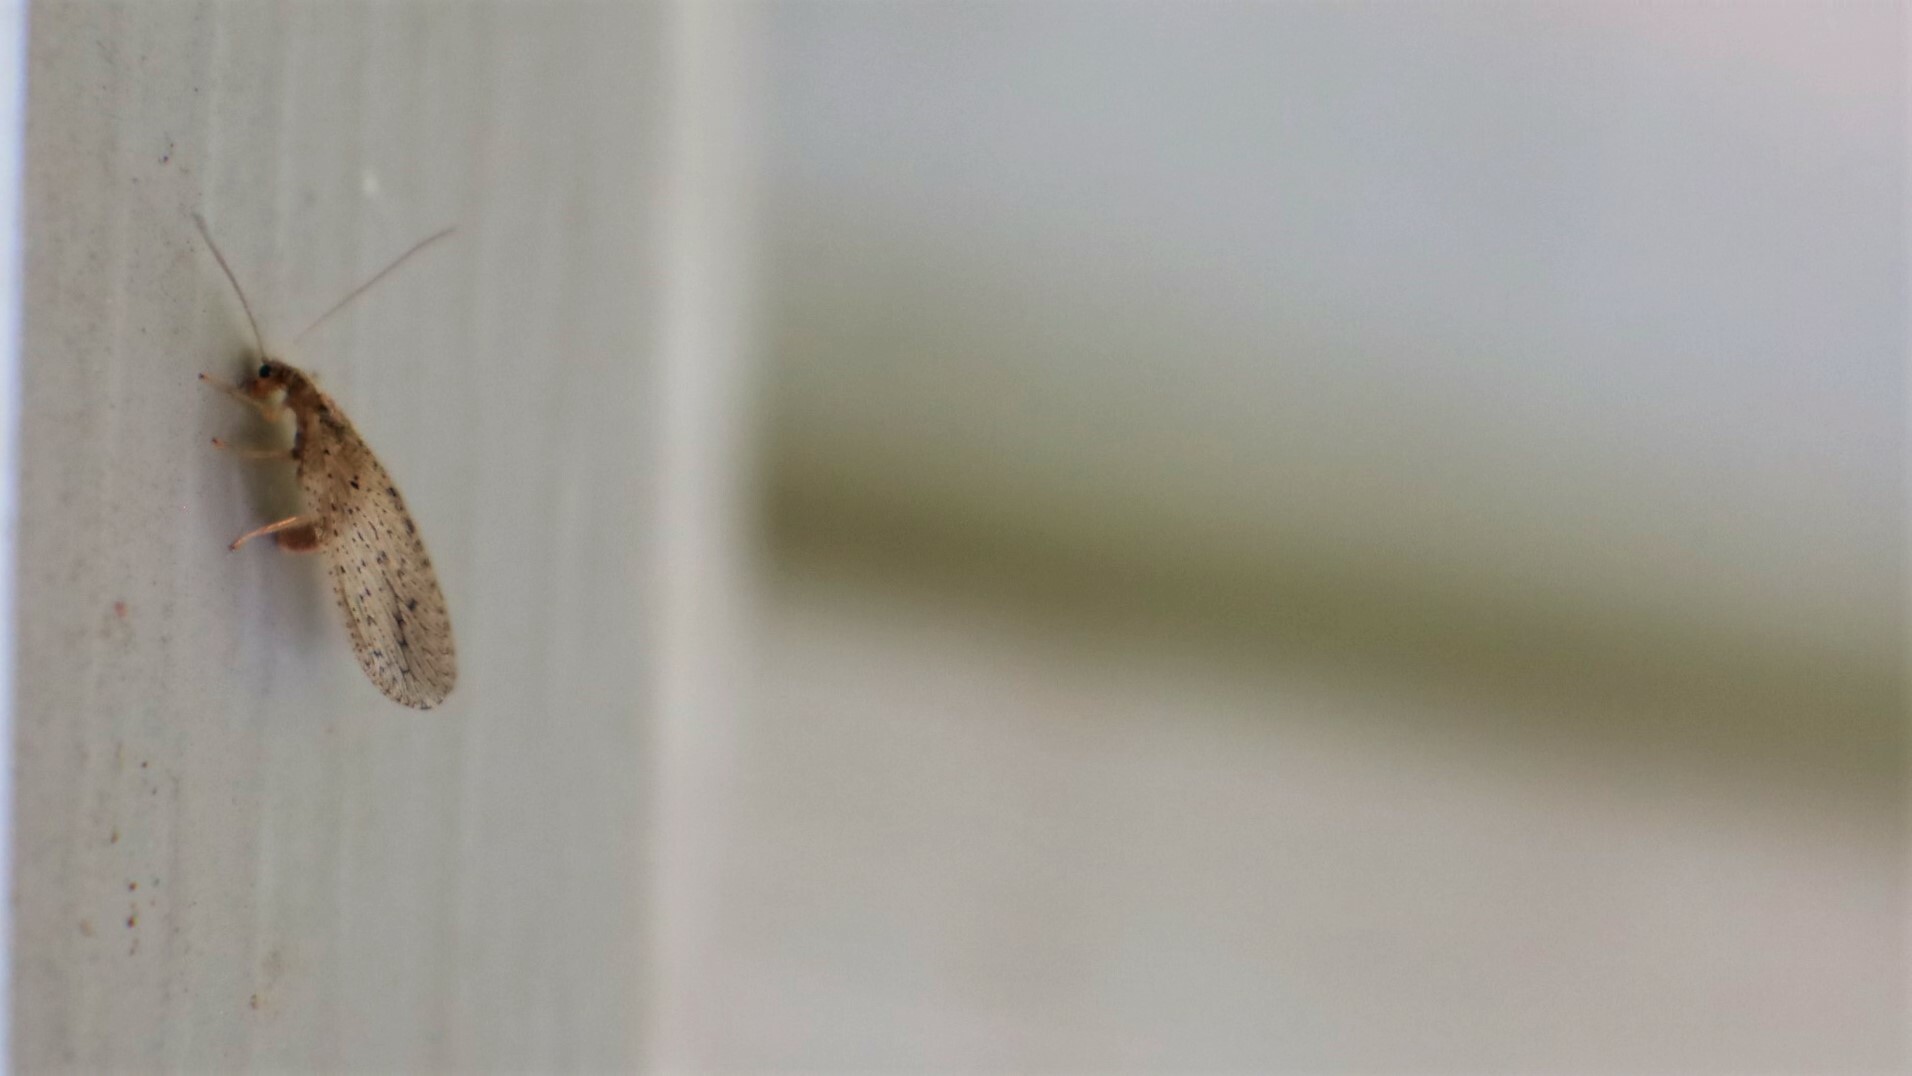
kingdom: Animalia
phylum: Arthropoda
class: Insecta
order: Neuroptera
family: Hemerobiidae
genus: Micromus
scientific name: Micromus subanticus
